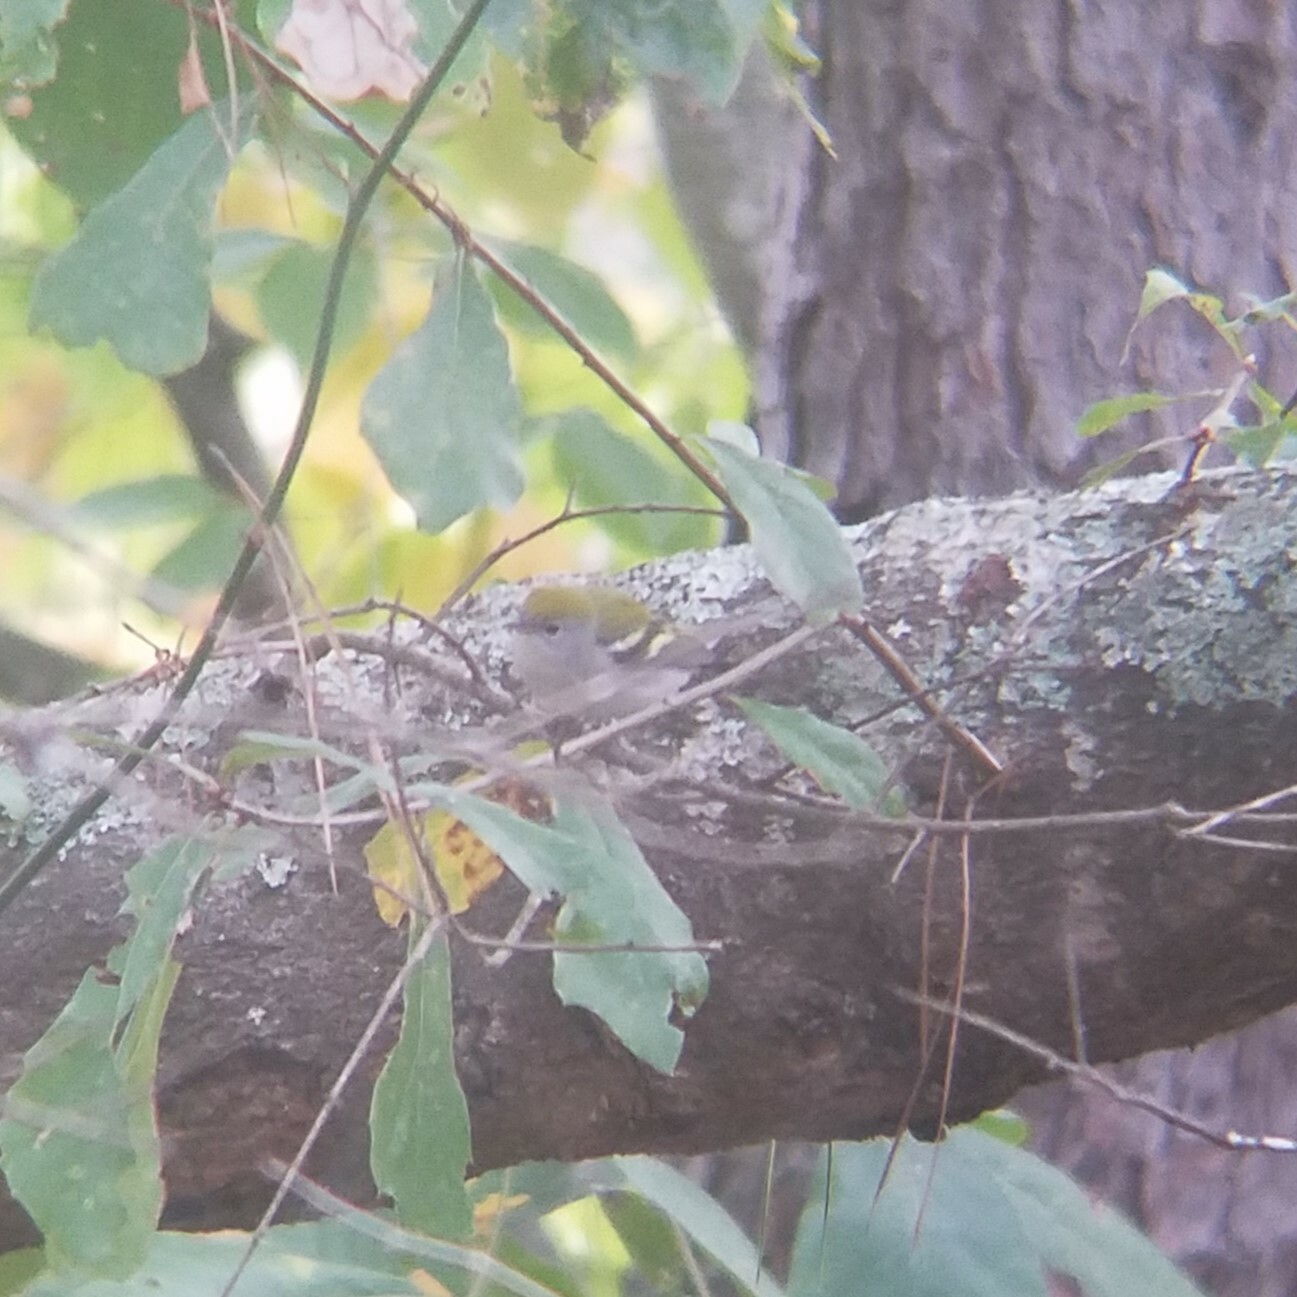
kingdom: Animalia
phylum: Chordata
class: Aves
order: Passeriformes
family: Parulidae
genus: Setophaga
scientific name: Setophaga pensylvanica
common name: Chestnut-sided warbler
